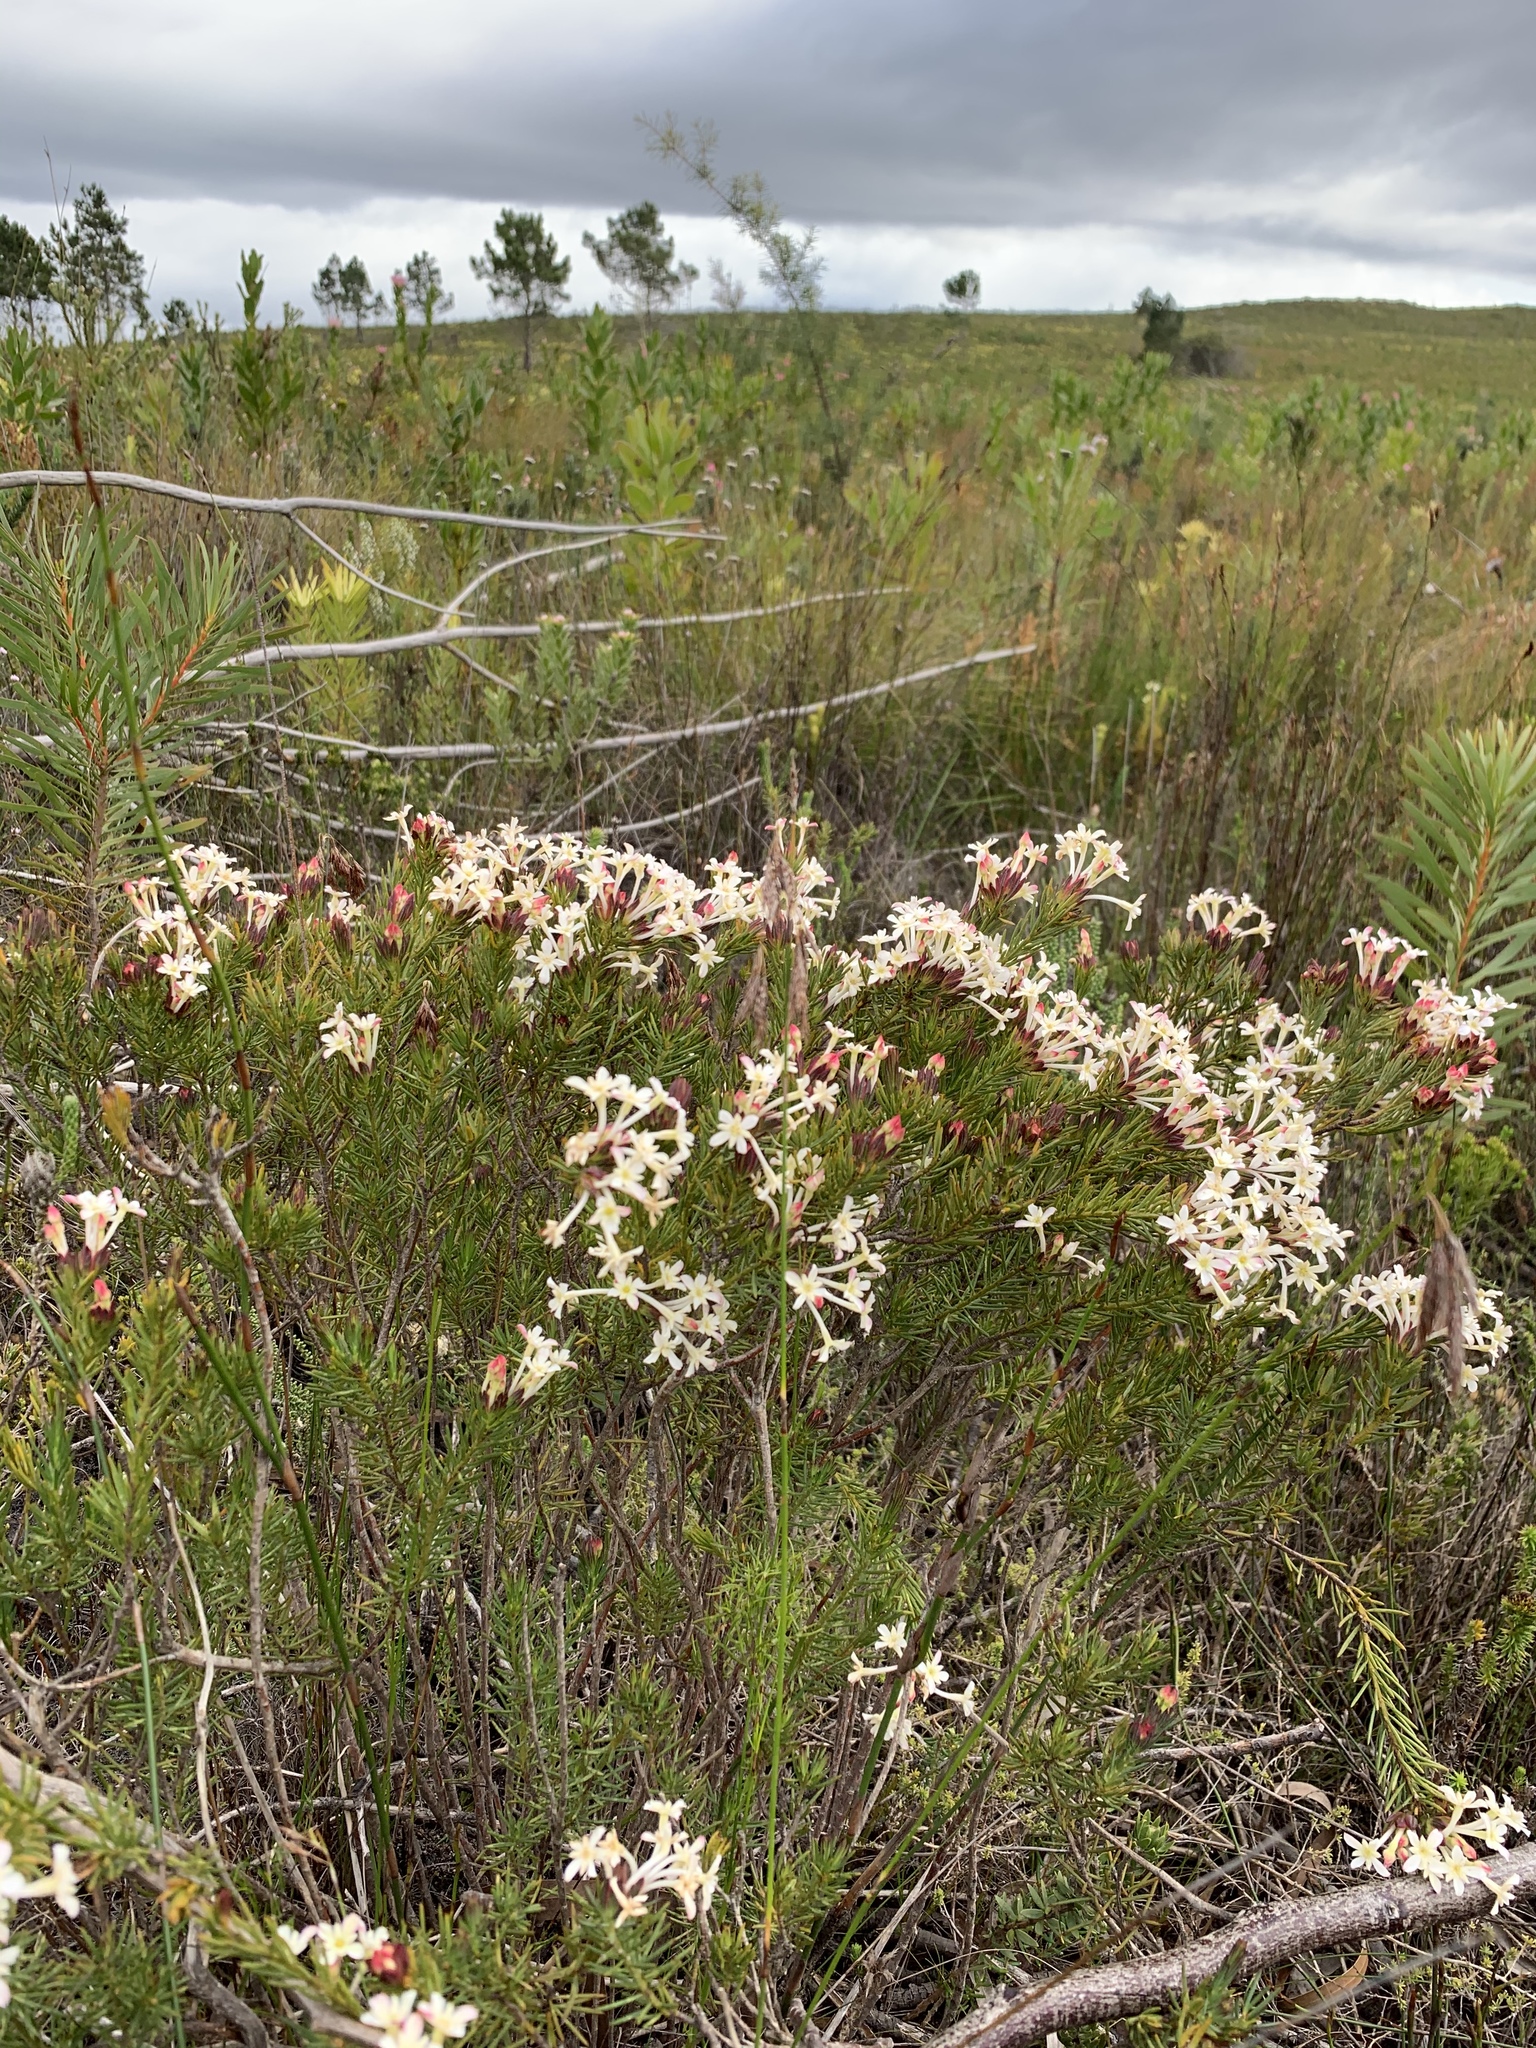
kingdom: Plantae
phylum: Tracheophyta
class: Magnoliopsida
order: Malvales
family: Thymelaeaceae
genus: Gnidia
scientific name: Gnidia pinifolia
